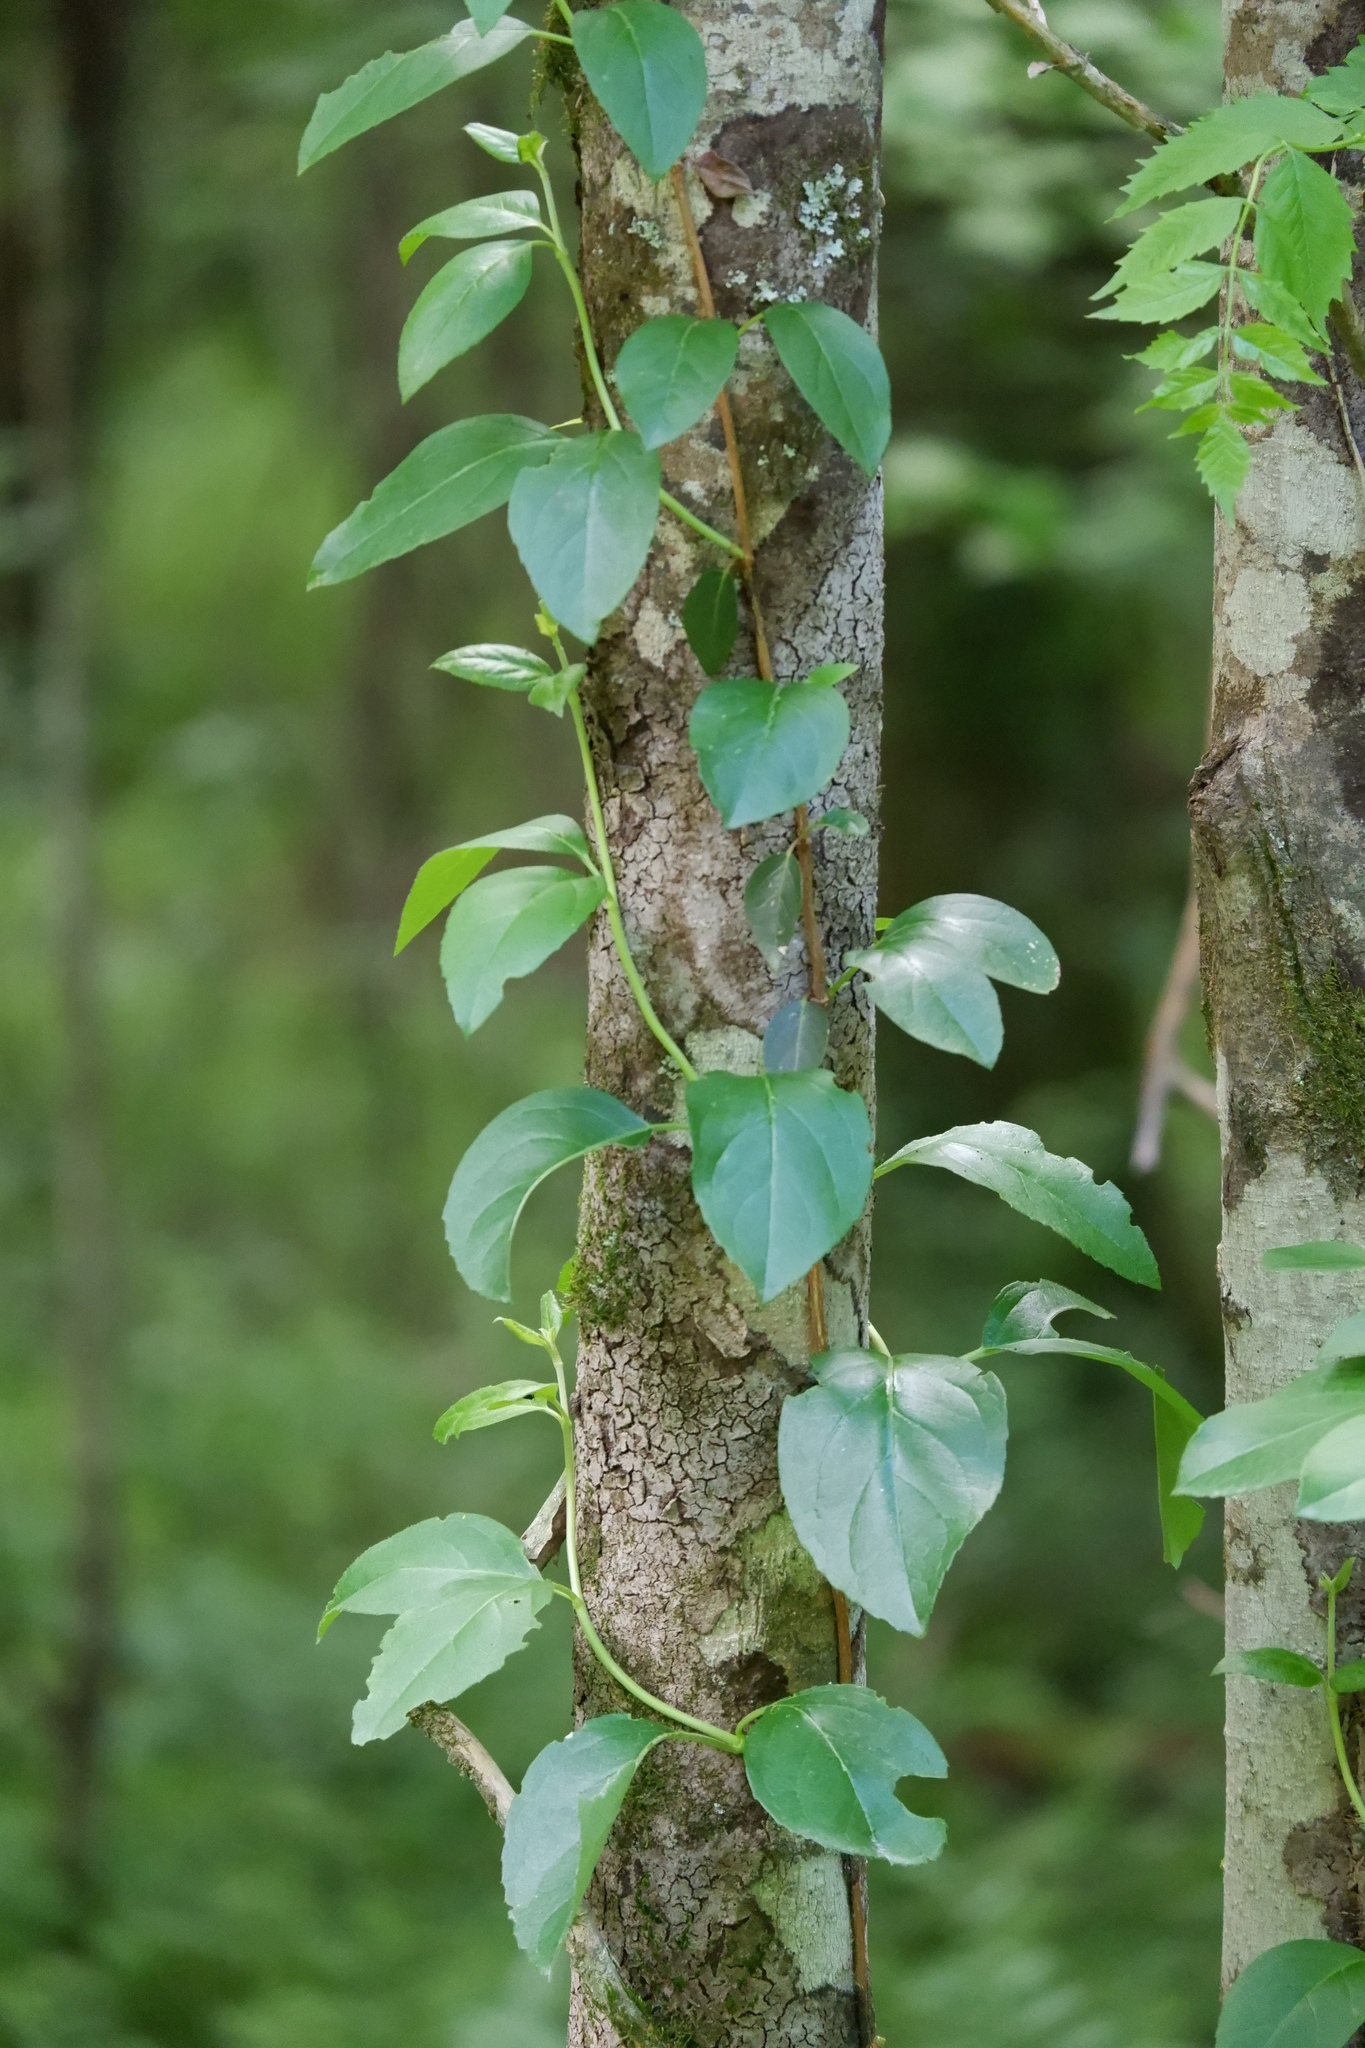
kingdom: Plantae
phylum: Tracheophyta
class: Magnoliopsida
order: Cornales
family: Hydrangeaceae
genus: Hydrangea
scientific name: Hydrangea barbara
